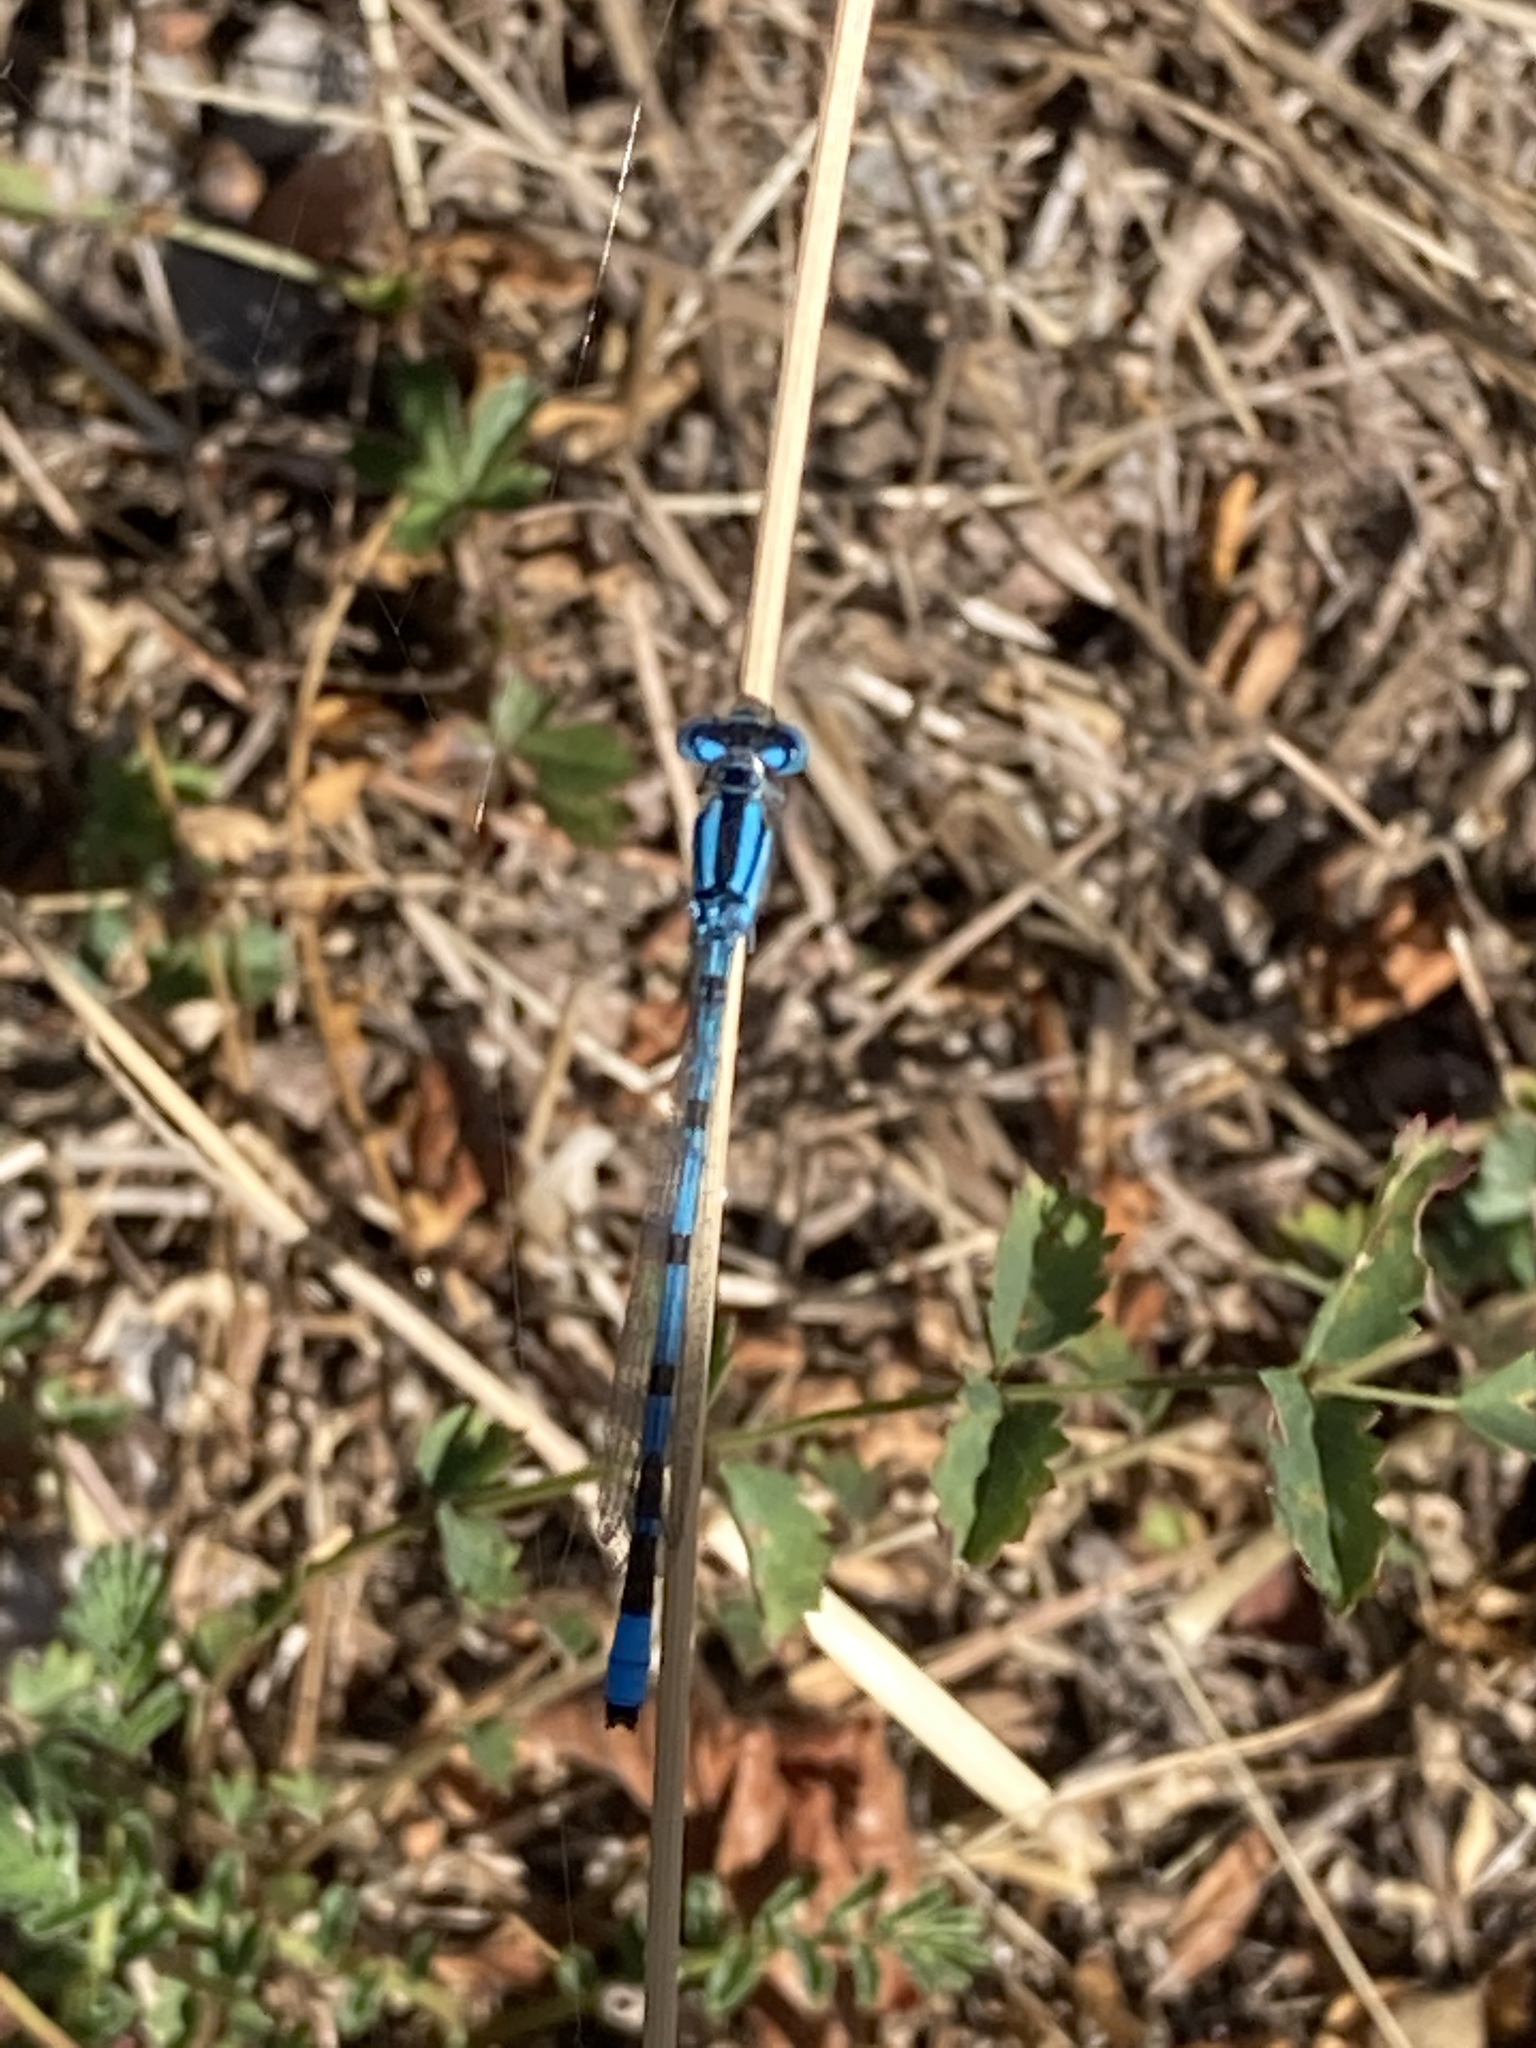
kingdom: Animalia
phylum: Arthropoda
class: Insecta
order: Odonata
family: Coenagrionidae
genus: Enallagma
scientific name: Enallagma cyathigerum
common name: Common blue damselfly
